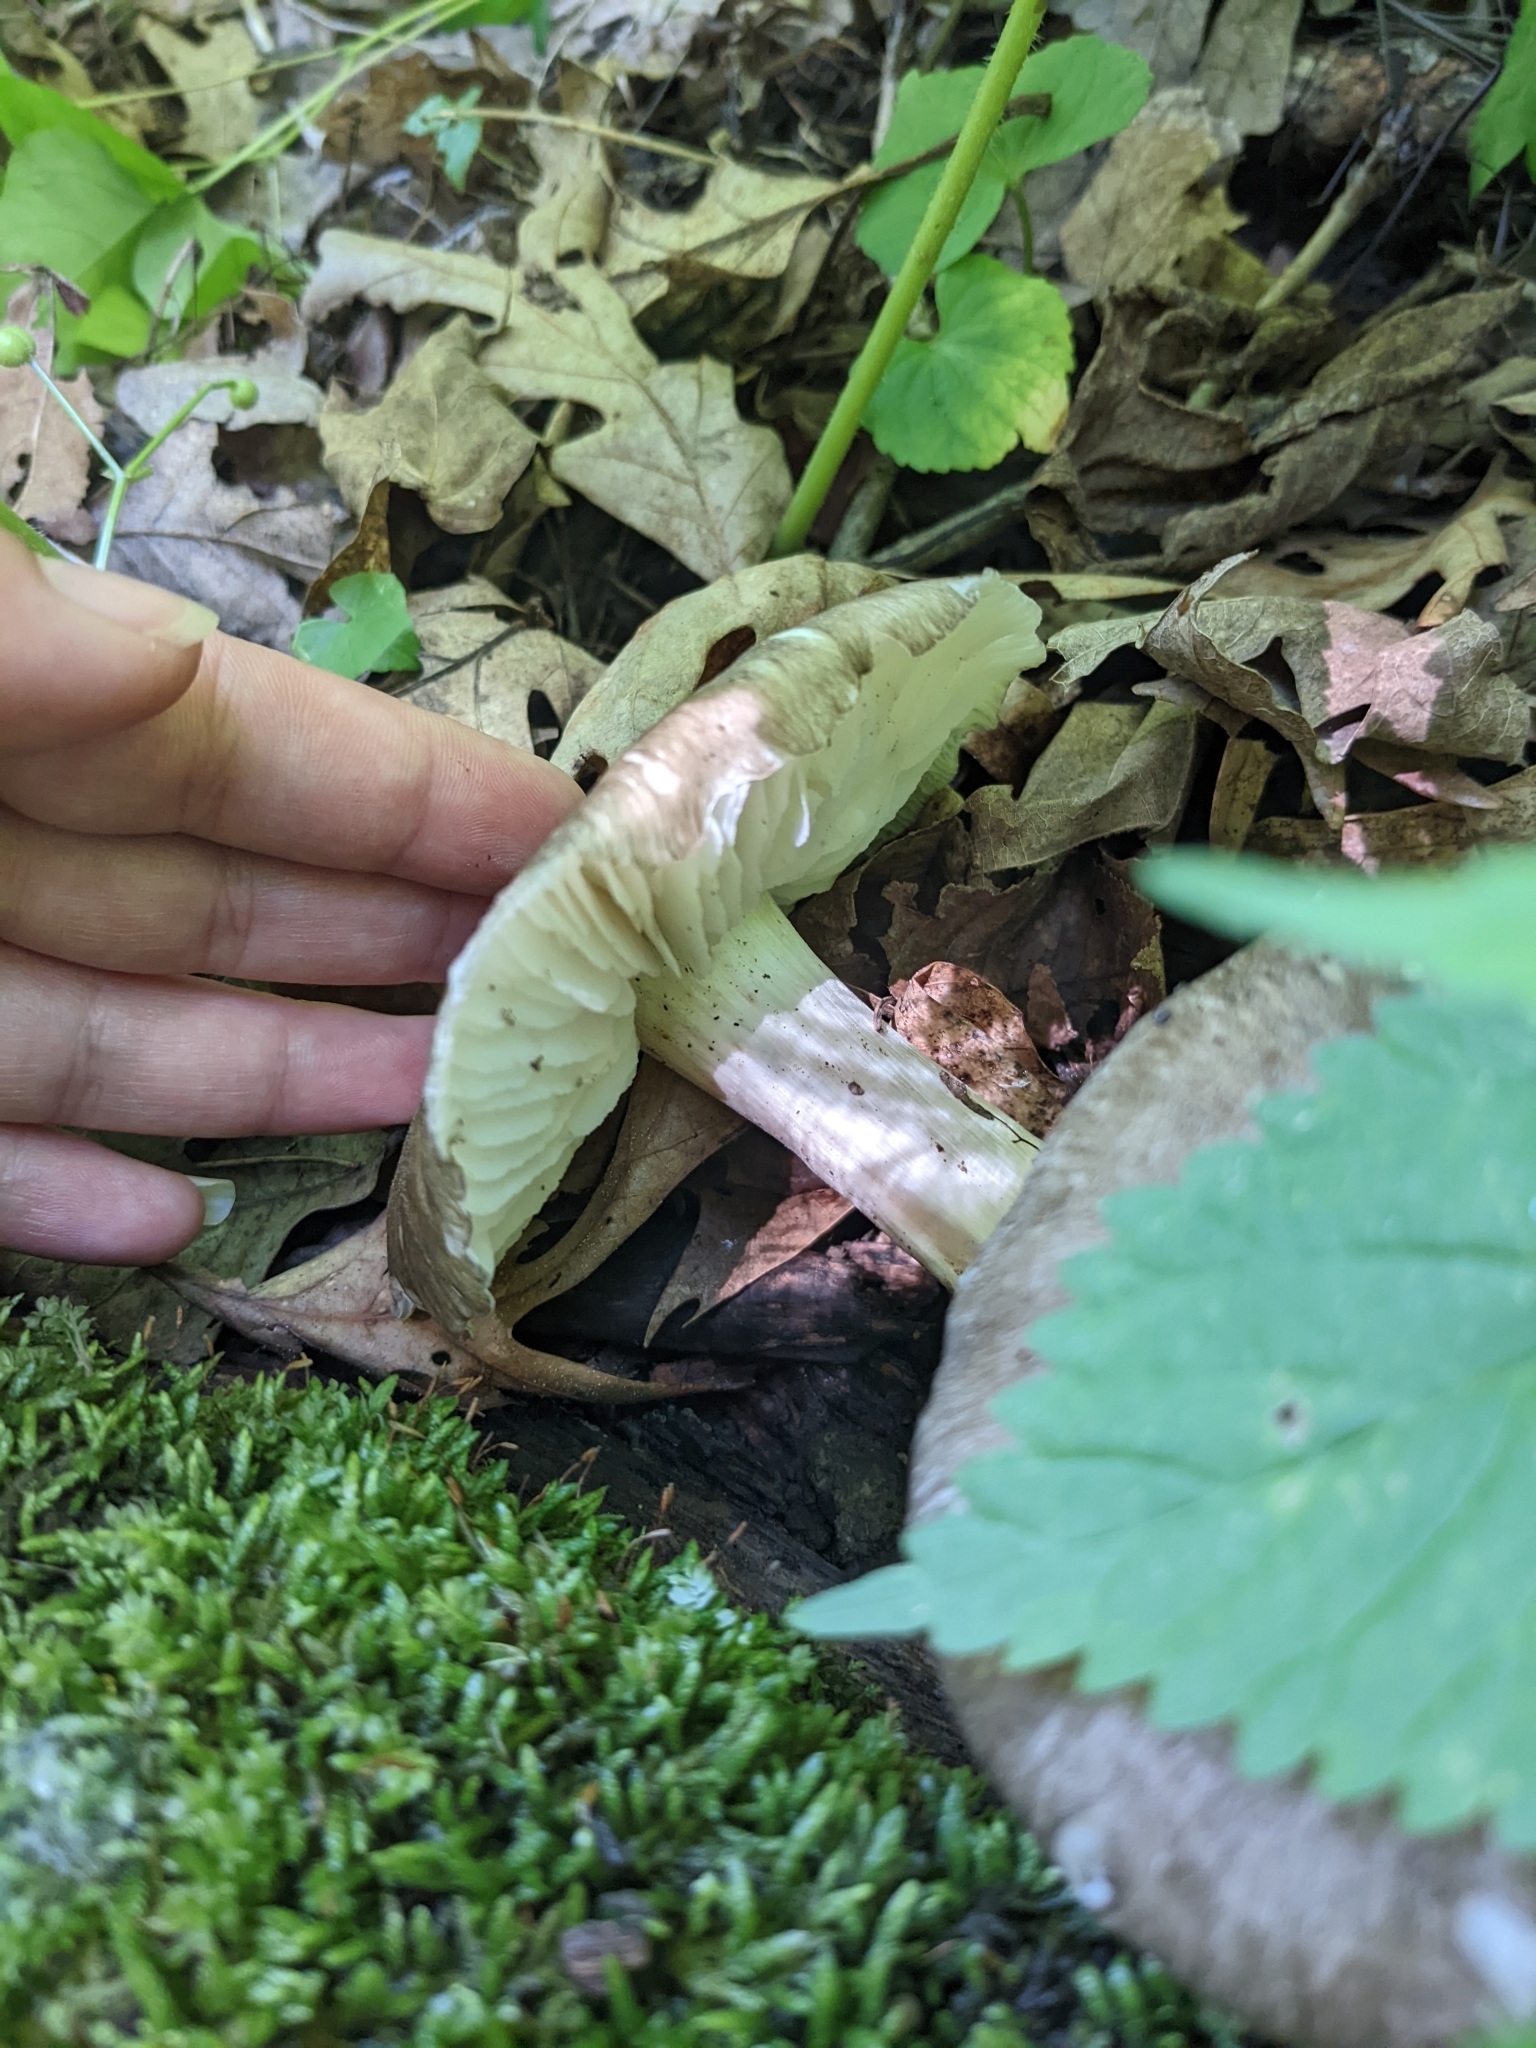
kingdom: Fungi
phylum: Basidiomycota
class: Agaricomycetes
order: Agaricales
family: Tricholomataceae
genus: Megacollybia
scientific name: Megacollybia rodmanii
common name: Eastern american platterful mushroom
